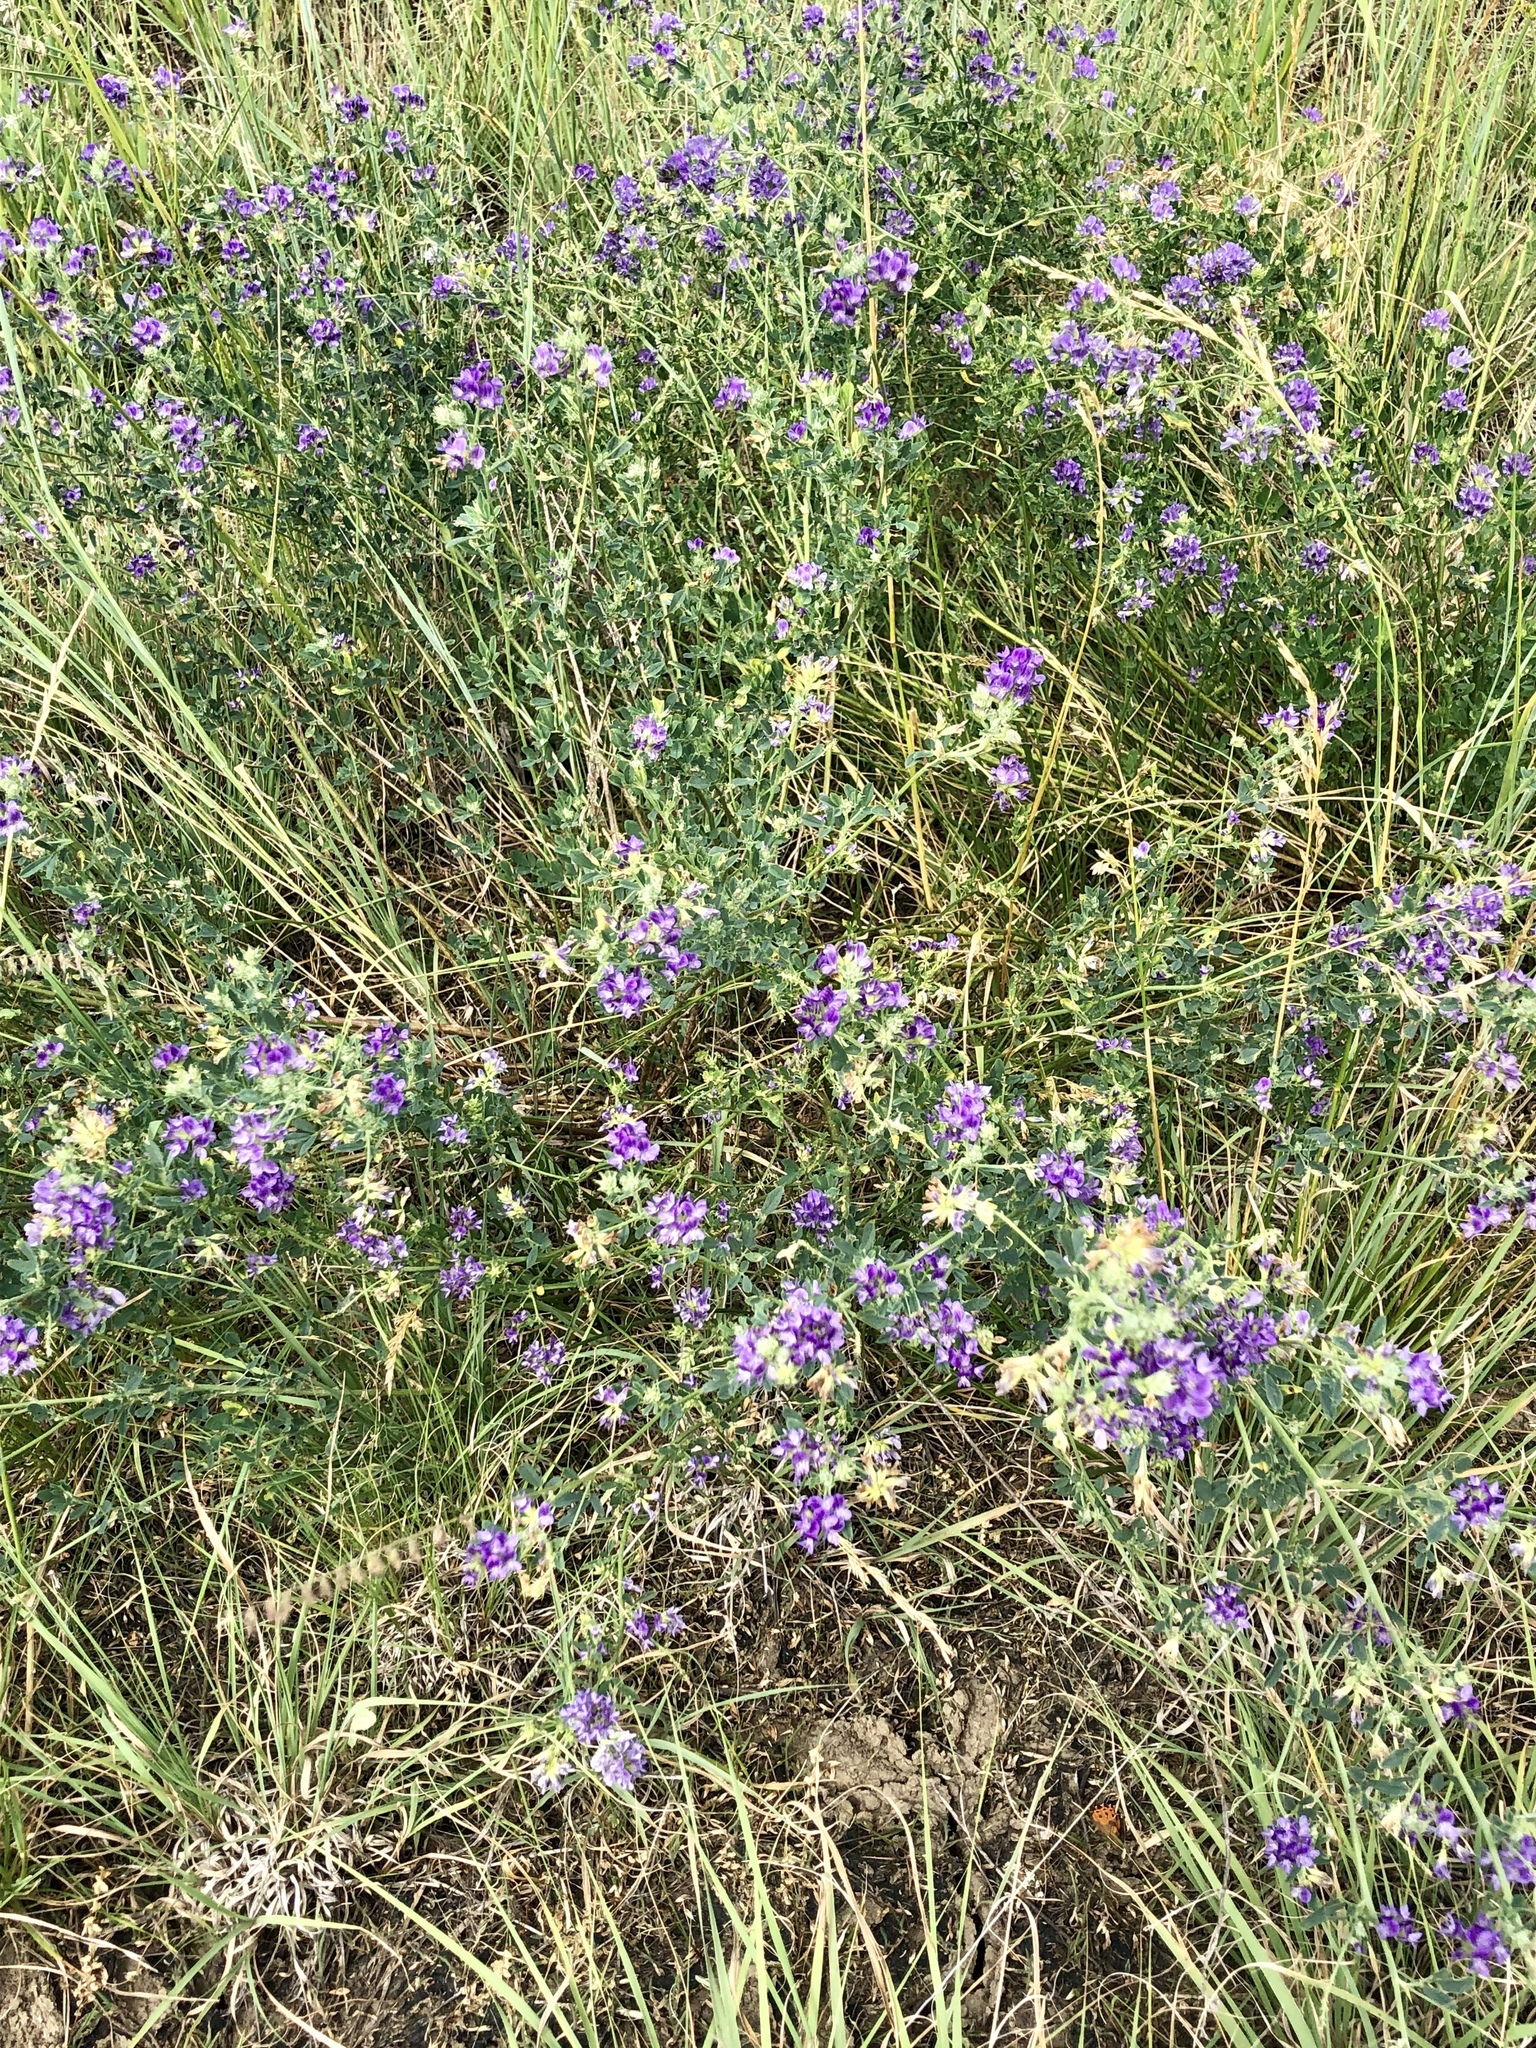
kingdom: Plantae
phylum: Tracheophyta
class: Magnoliopsida
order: Fabales
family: Fabaceae
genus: Medicago
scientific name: Medicago sativa
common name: Alfalfa
